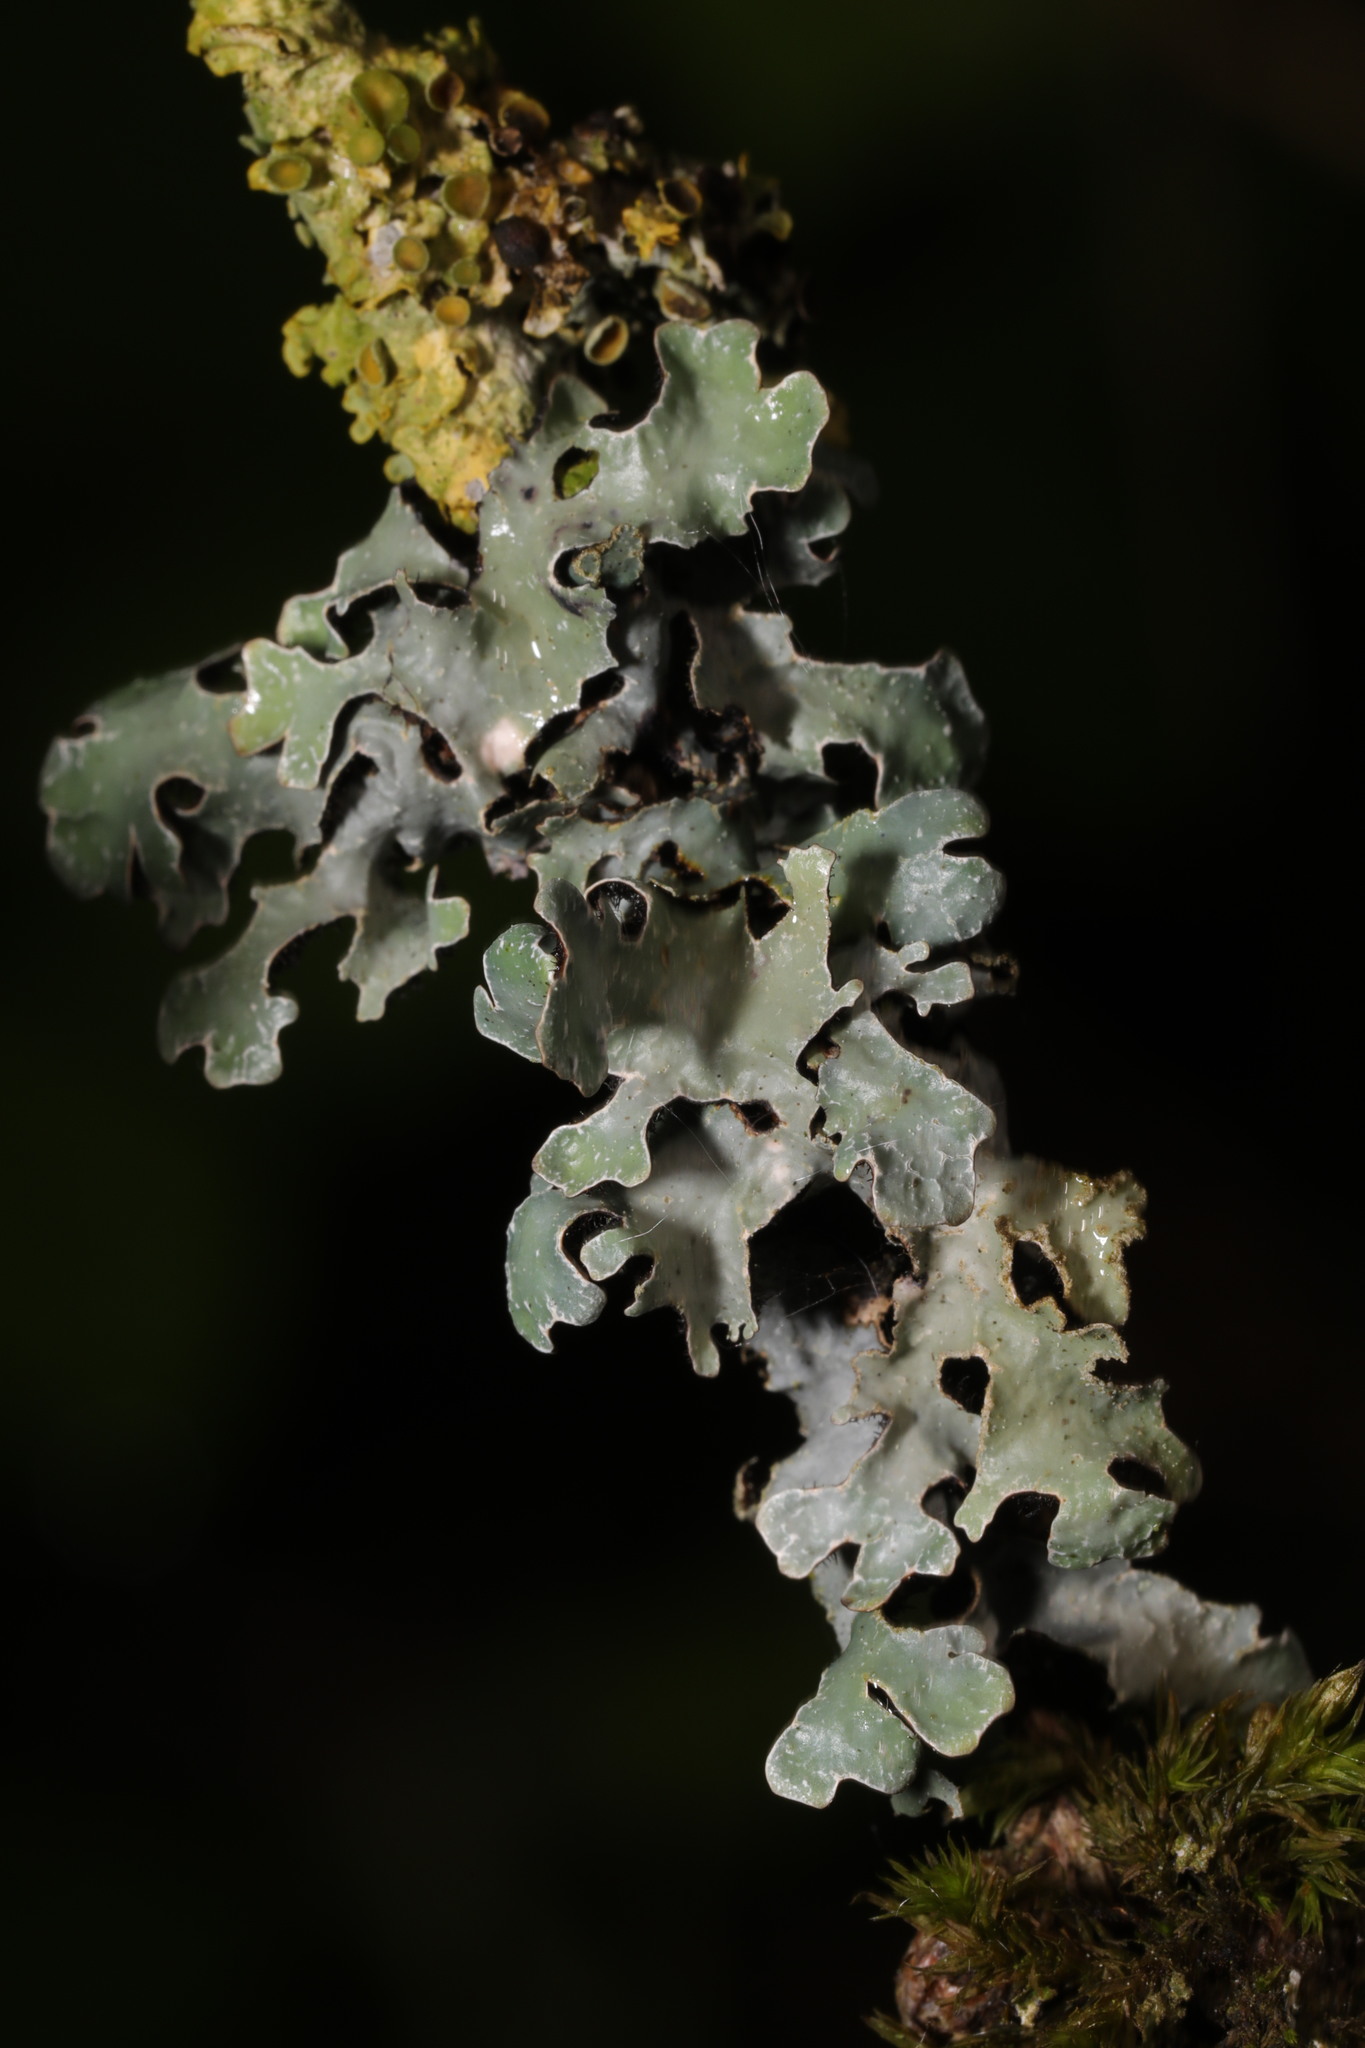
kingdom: Fungi
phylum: Ascomycota
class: Lecanoromycetes
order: Lecanorales
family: Parmeliaceae
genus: Parmelia
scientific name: Parmelia sulcata
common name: Netted shield lichen
